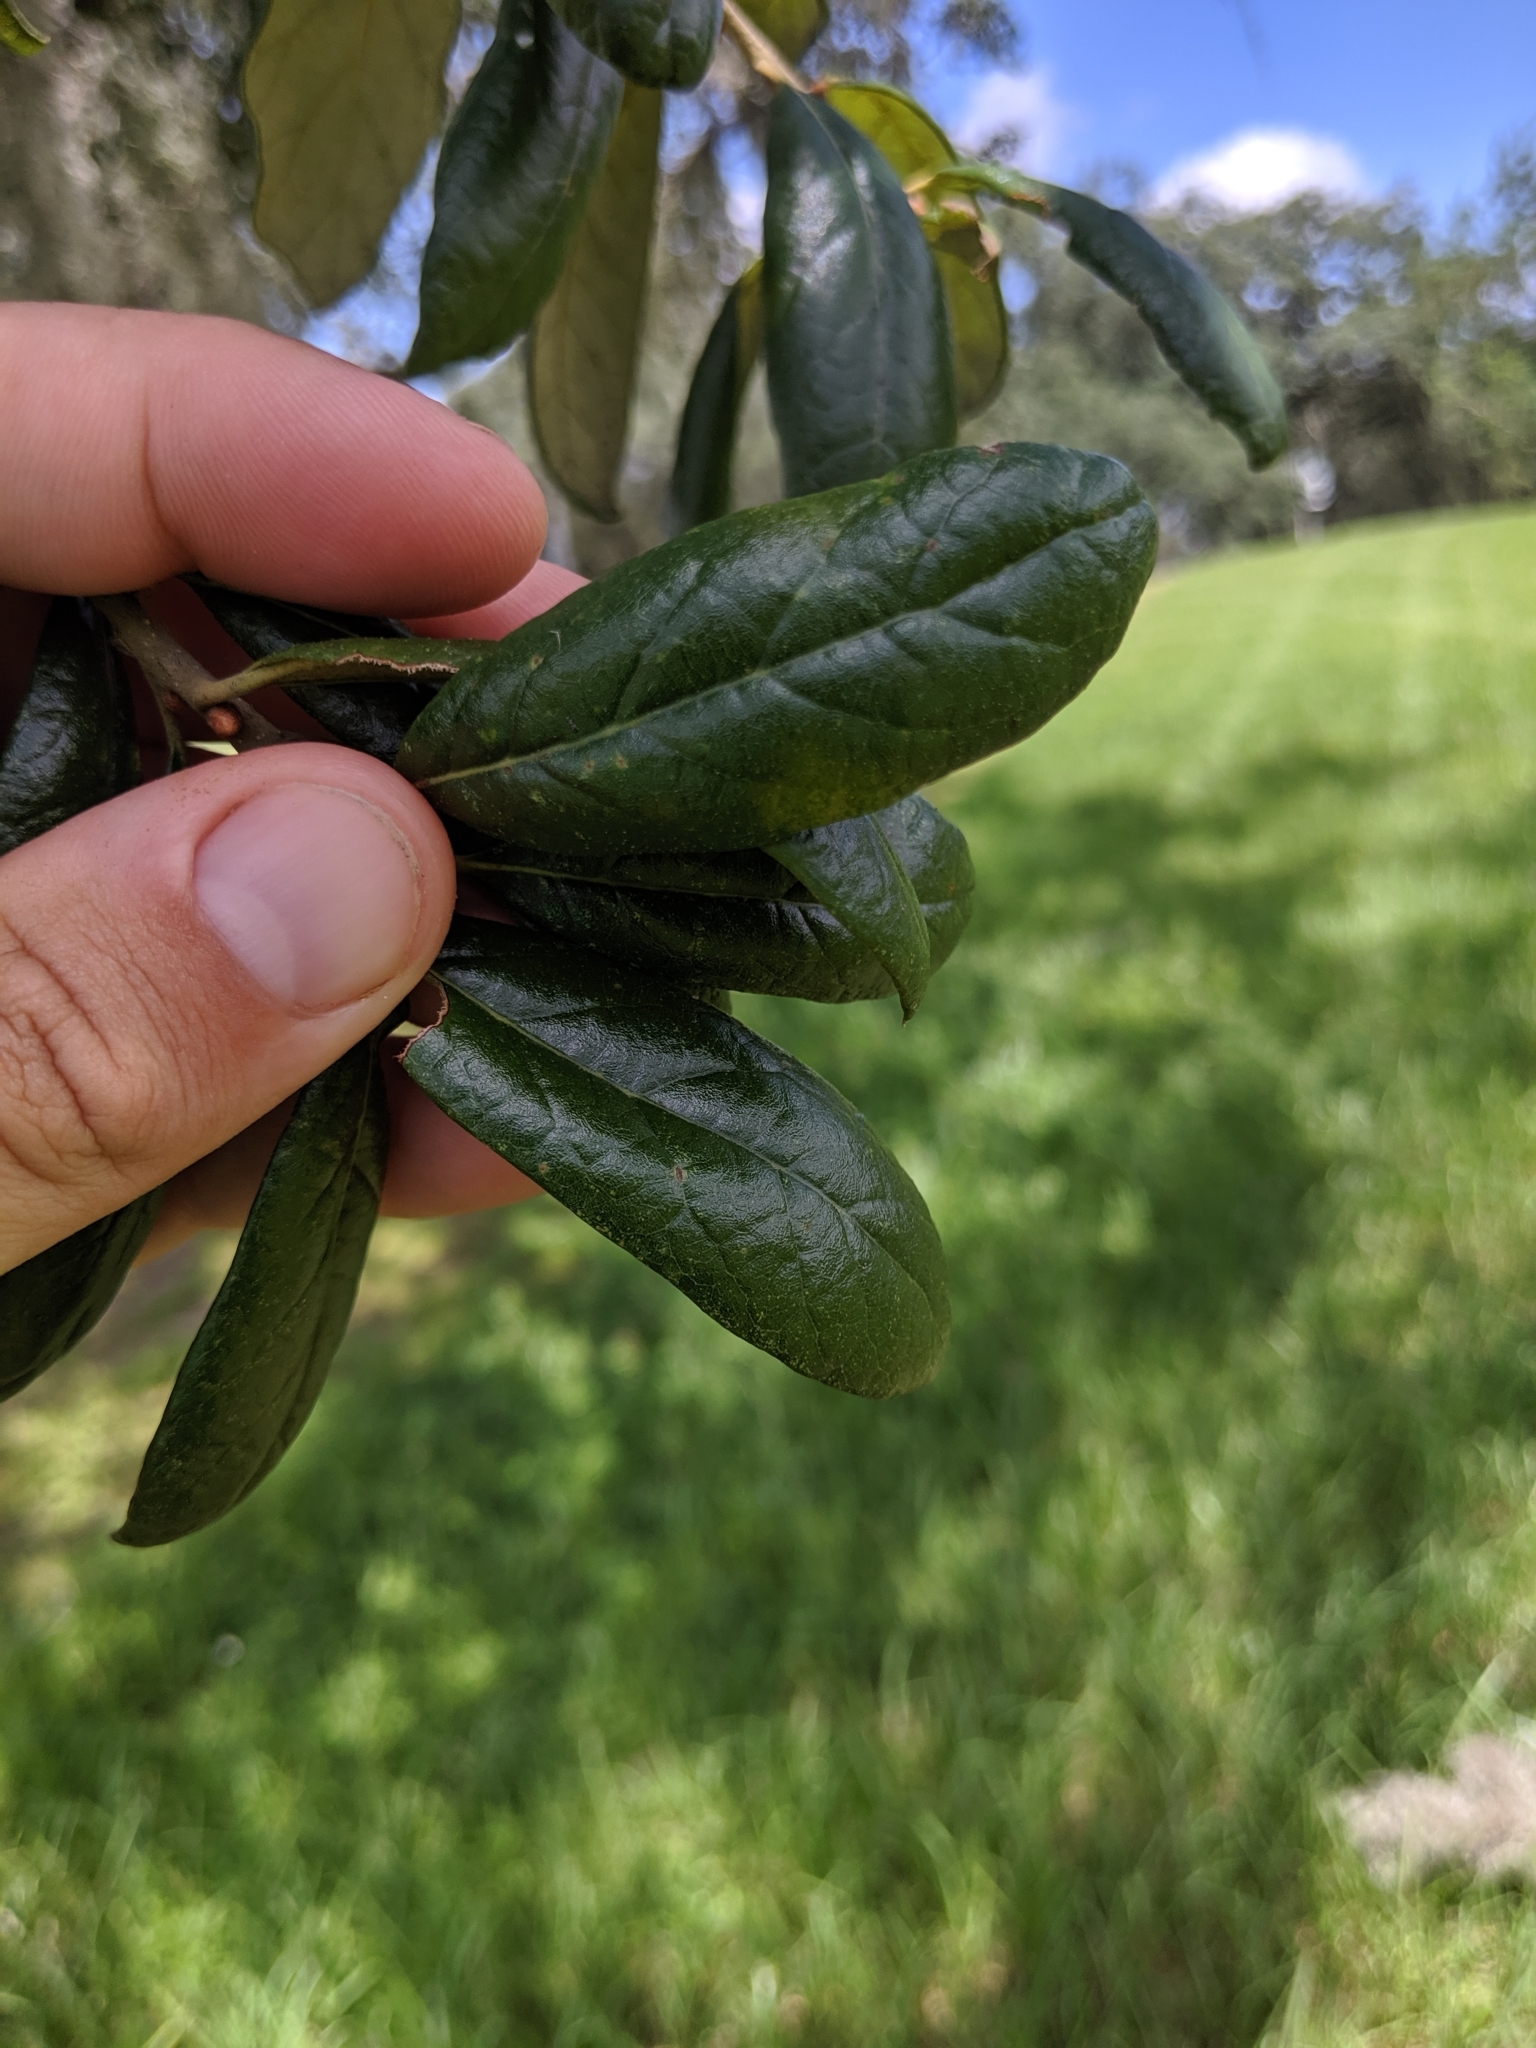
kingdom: Plantae
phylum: Tracheophyta
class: Magnoliopsida
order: Fagales
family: Fagaceae
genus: Quercus
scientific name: Quercus geminata
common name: Sand live oak
